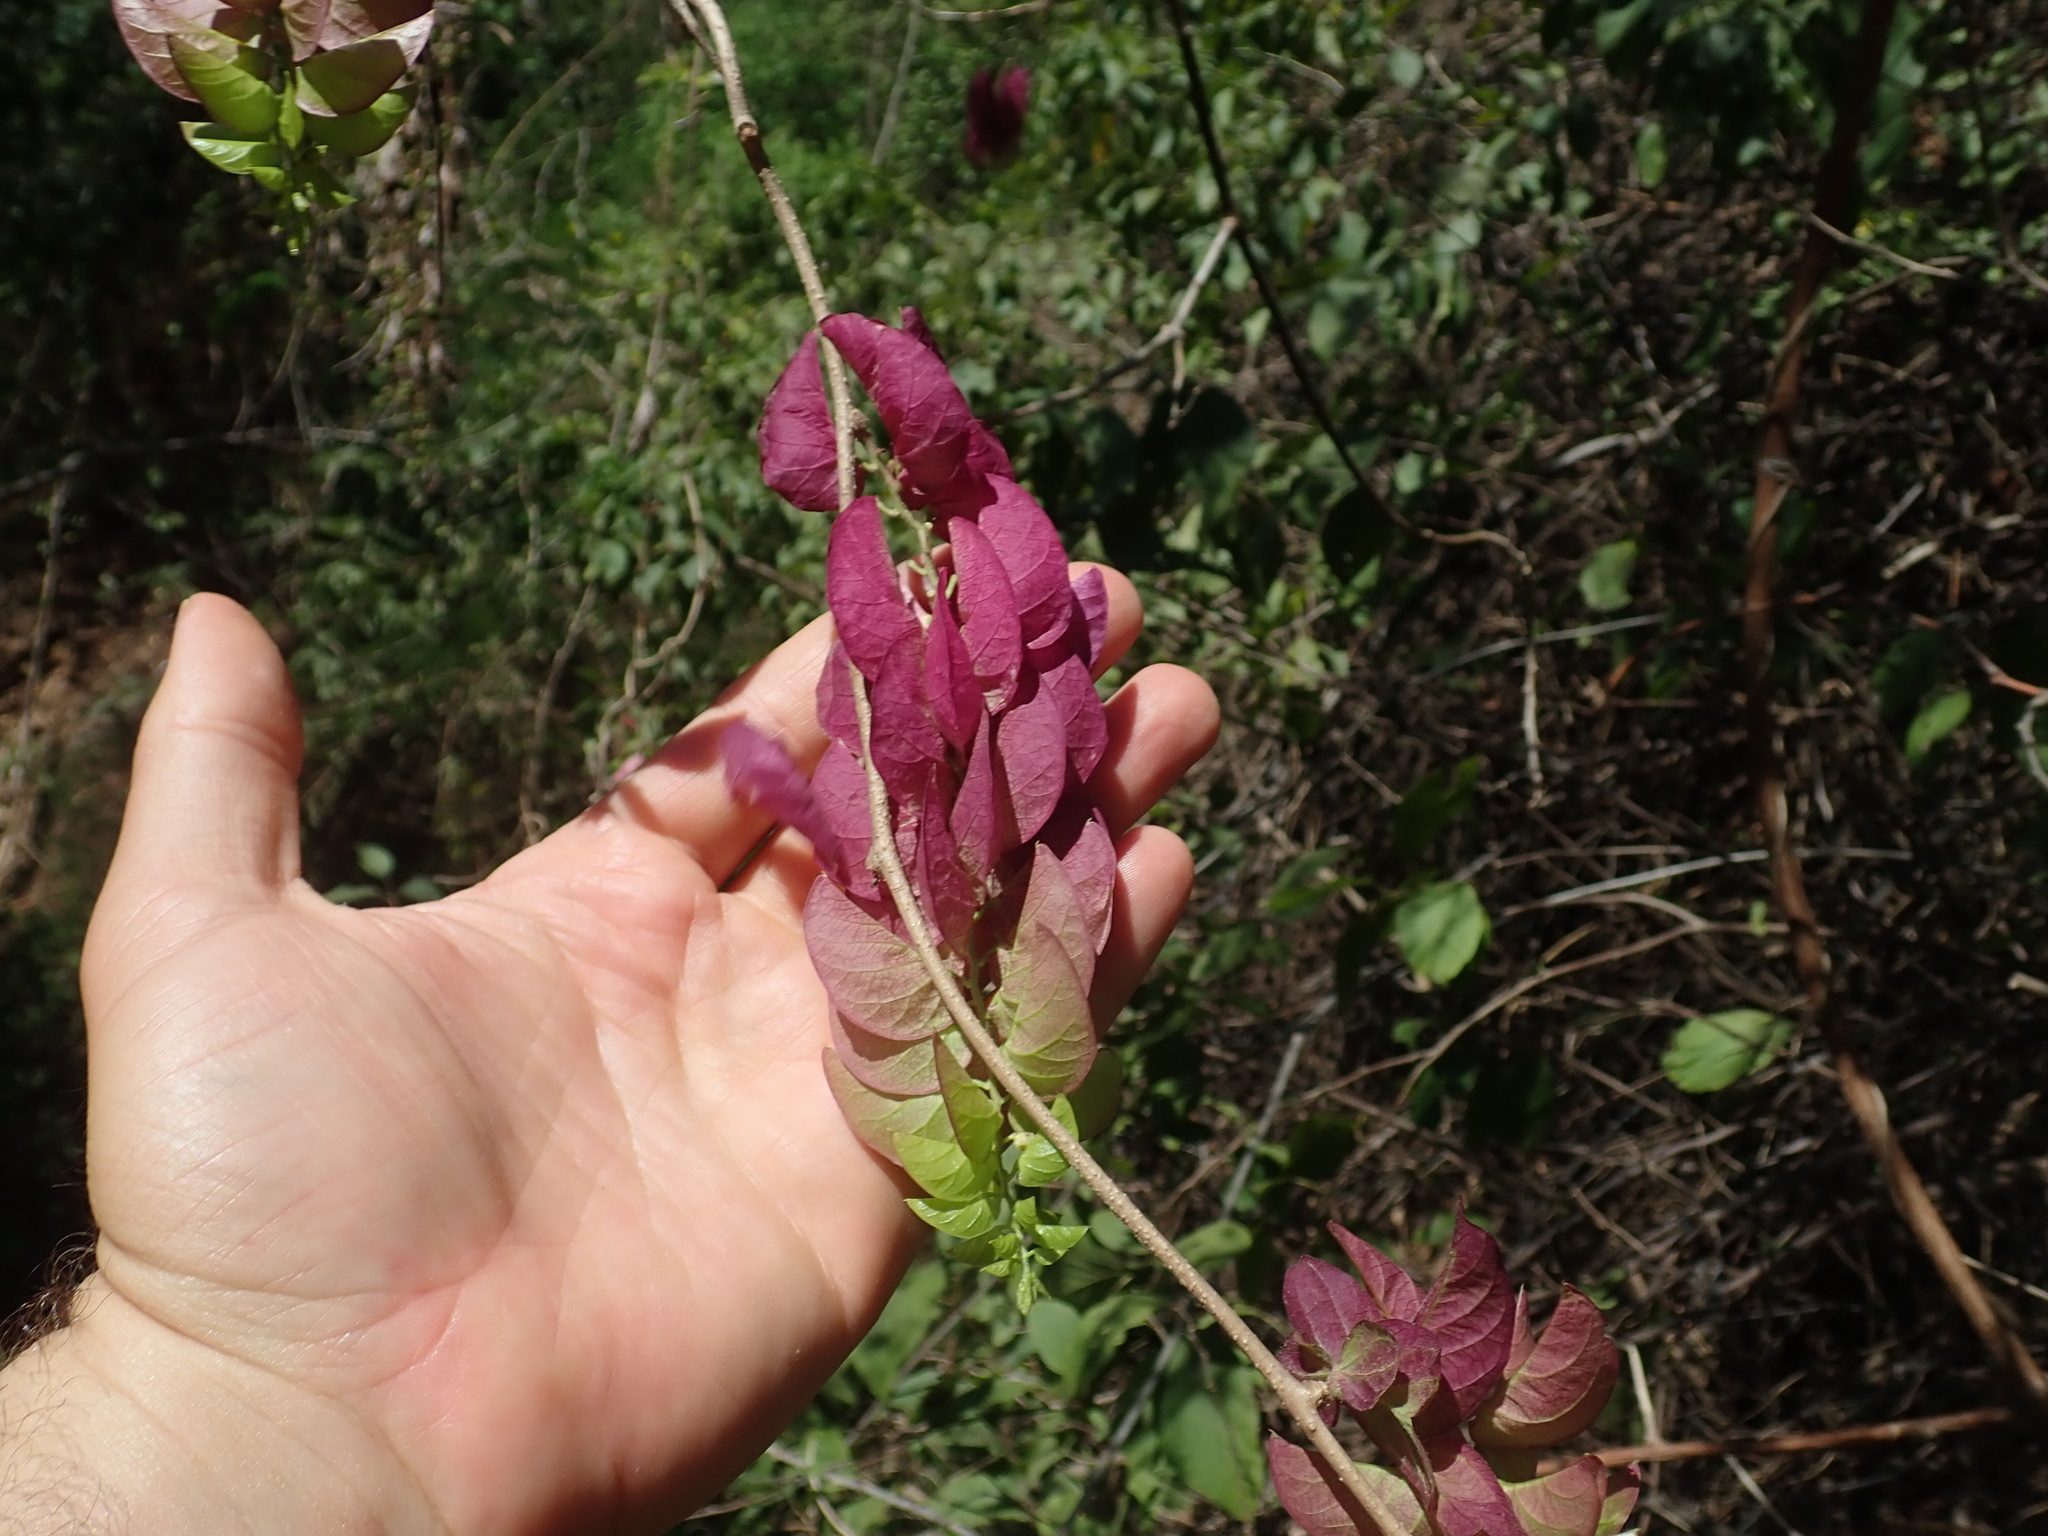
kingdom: Plantae
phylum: Tracheophyta
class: Magnoliopsida
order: Solanales
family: Convolvulaceae
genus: Ipomoea
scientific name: Ipomoea bracteata
